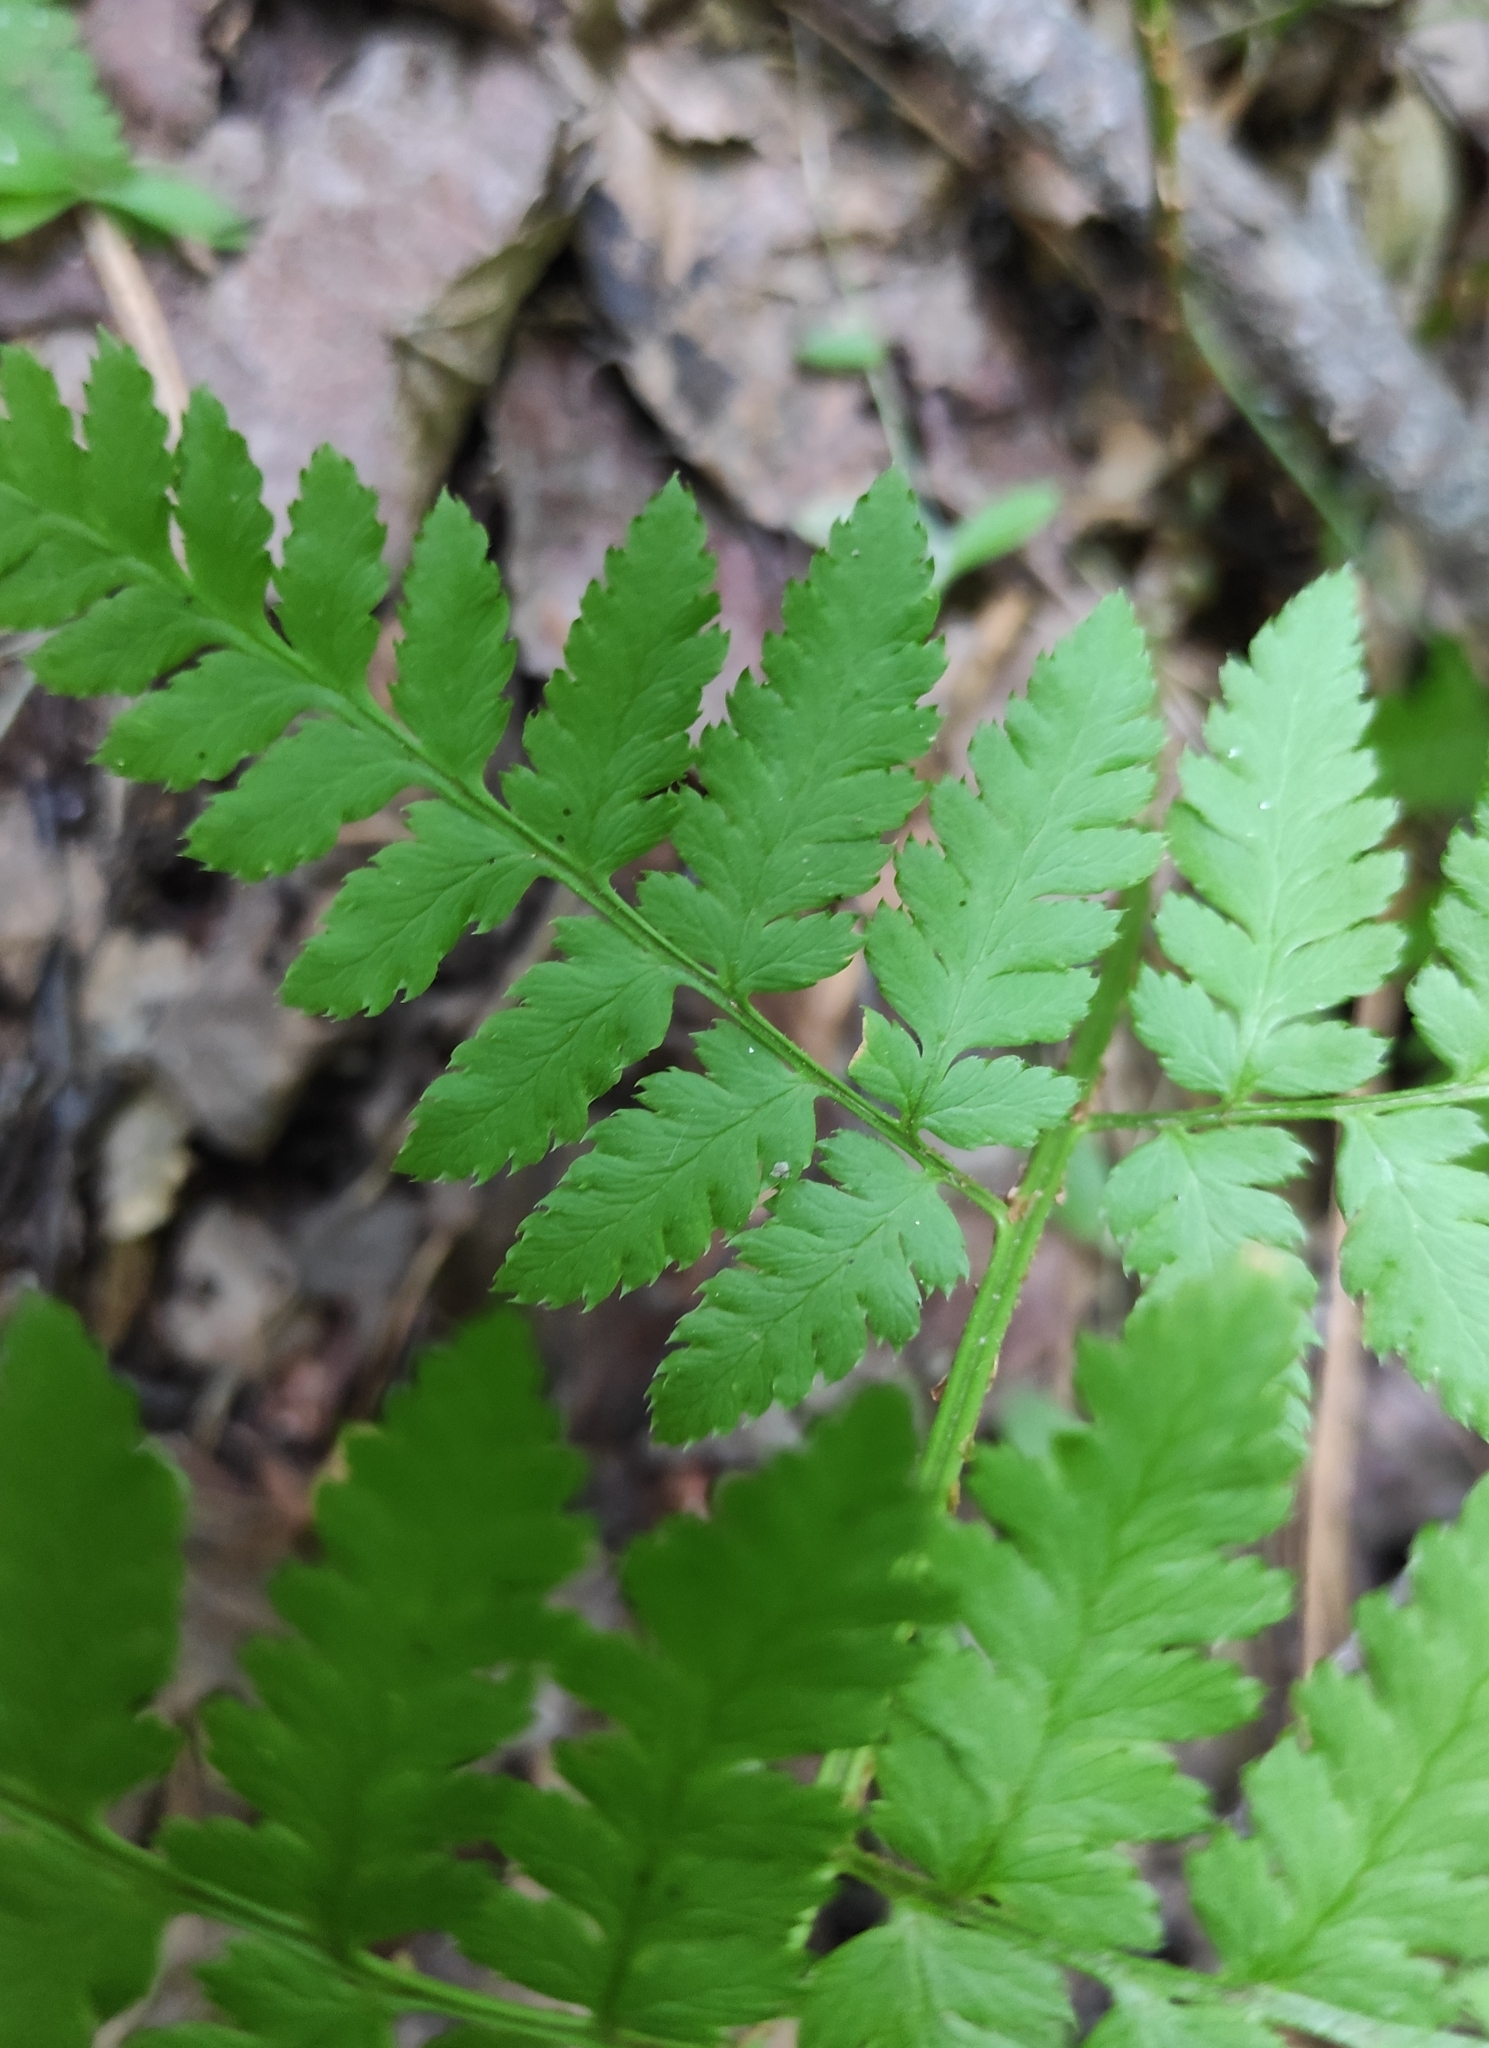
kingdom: Plantae
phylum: Tracheophyta
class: Polypodiopsida
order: Polypodiales
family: Dryopteridaceae
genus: Dryopteris
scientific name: Dryopteris carthusiana
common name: Narrow buckler-fern
